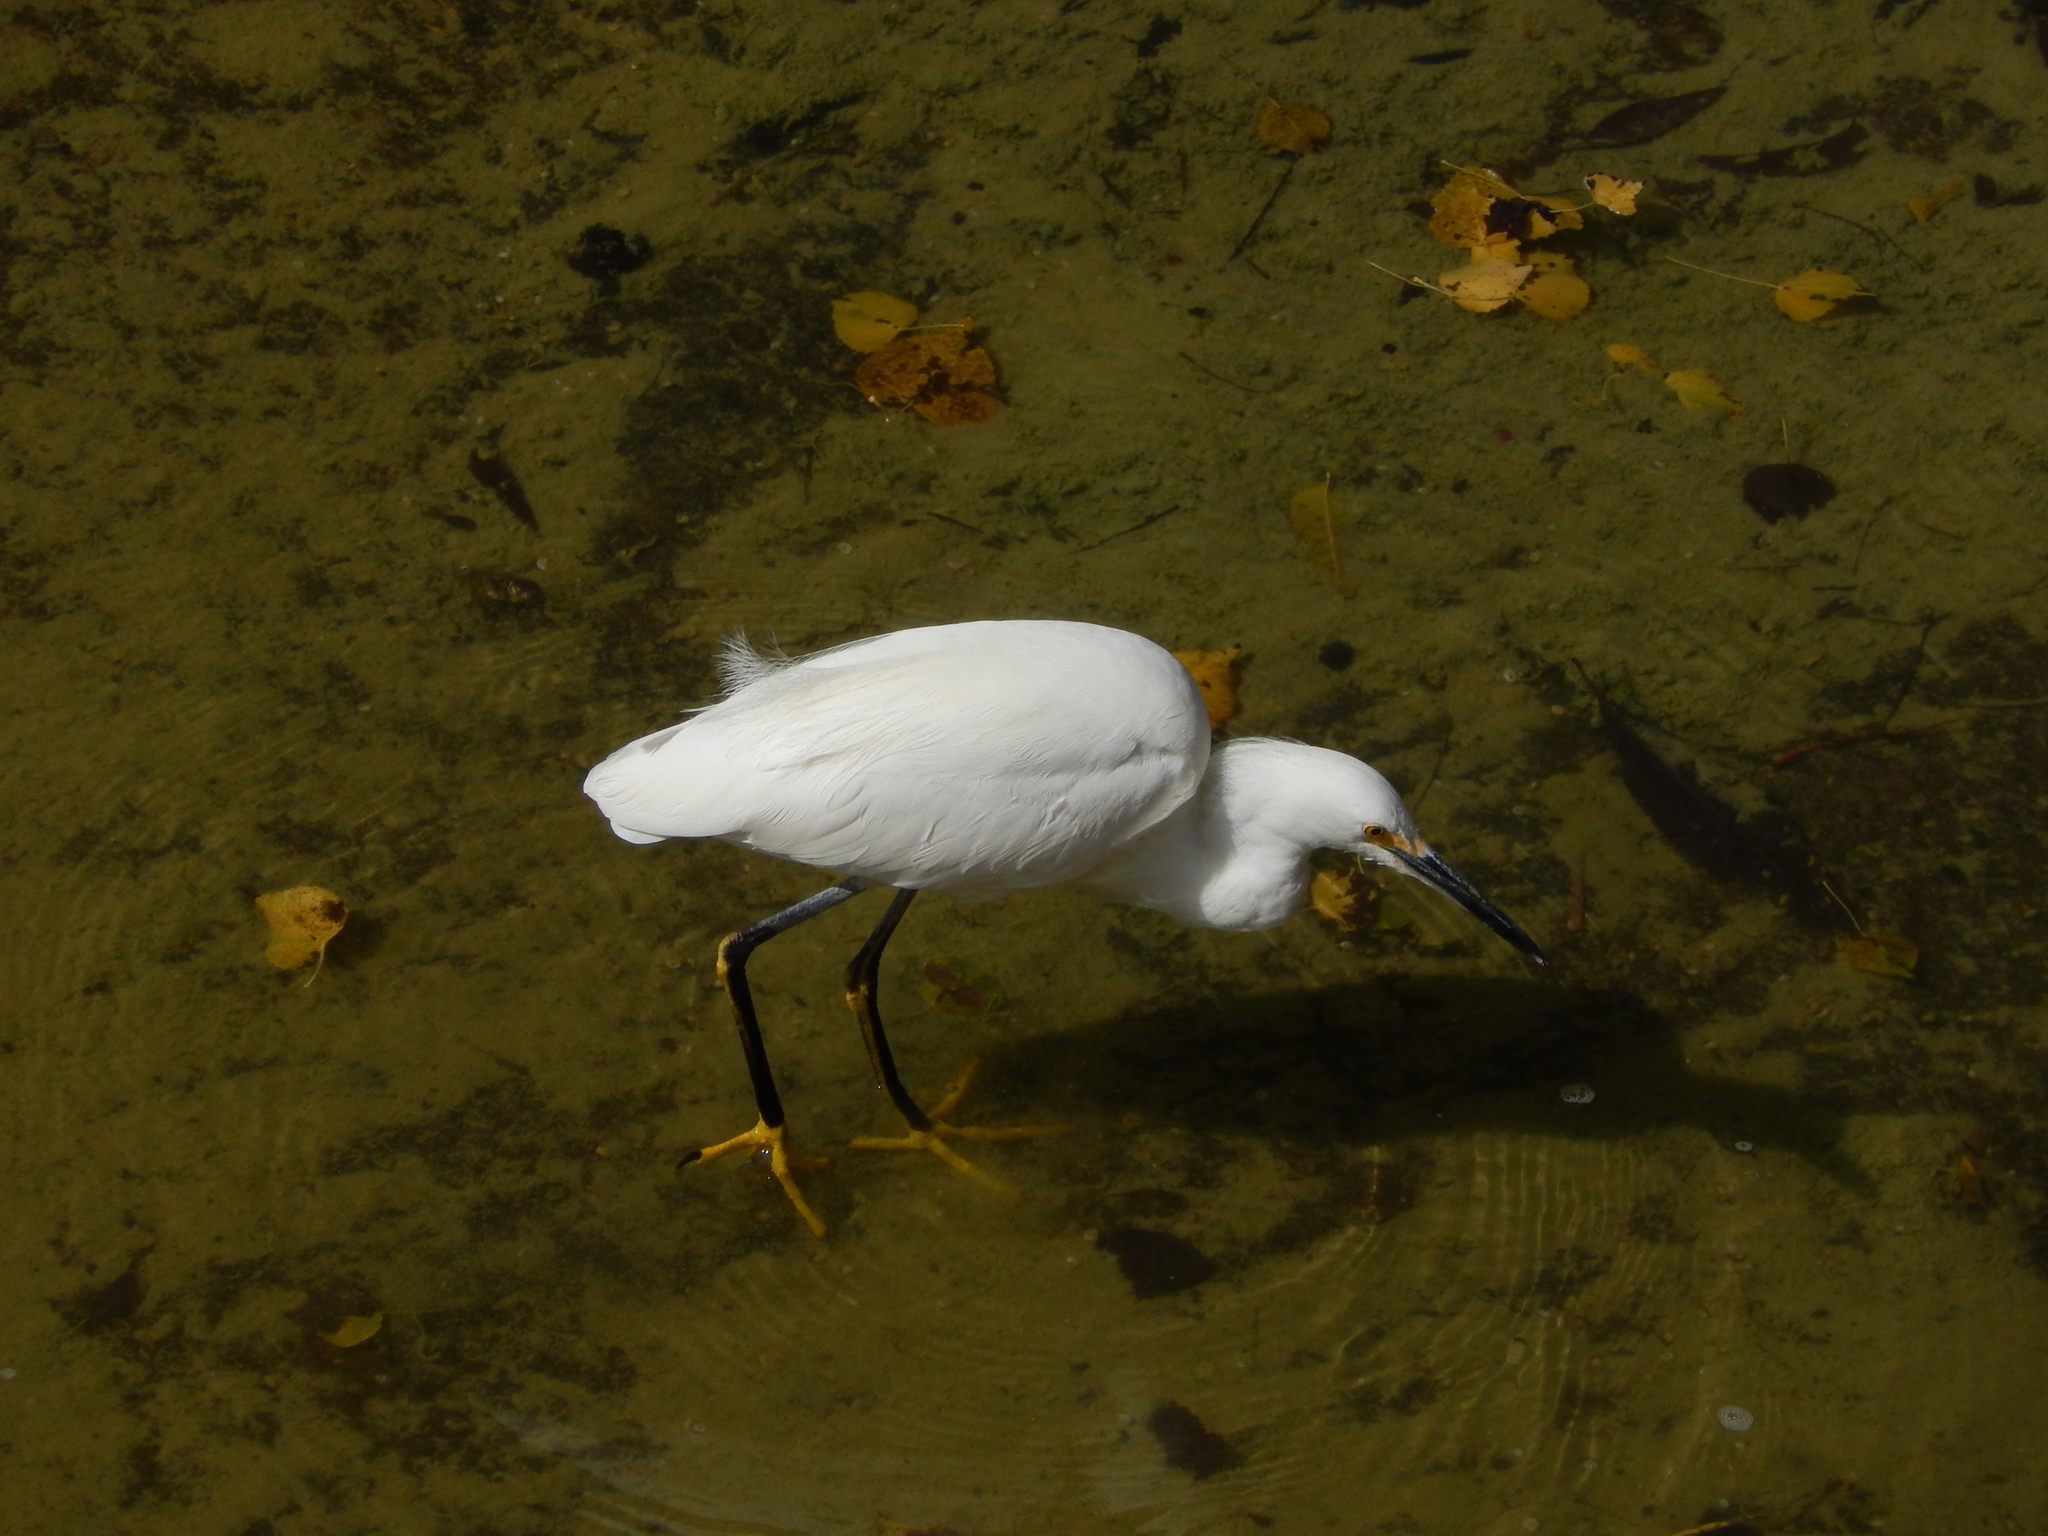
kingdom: Animalia
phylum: Chordata
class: Aves
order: Pelecaniformes
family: Ardeidae
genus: Egretta
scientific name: Egretta thula
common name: Snowy egret
